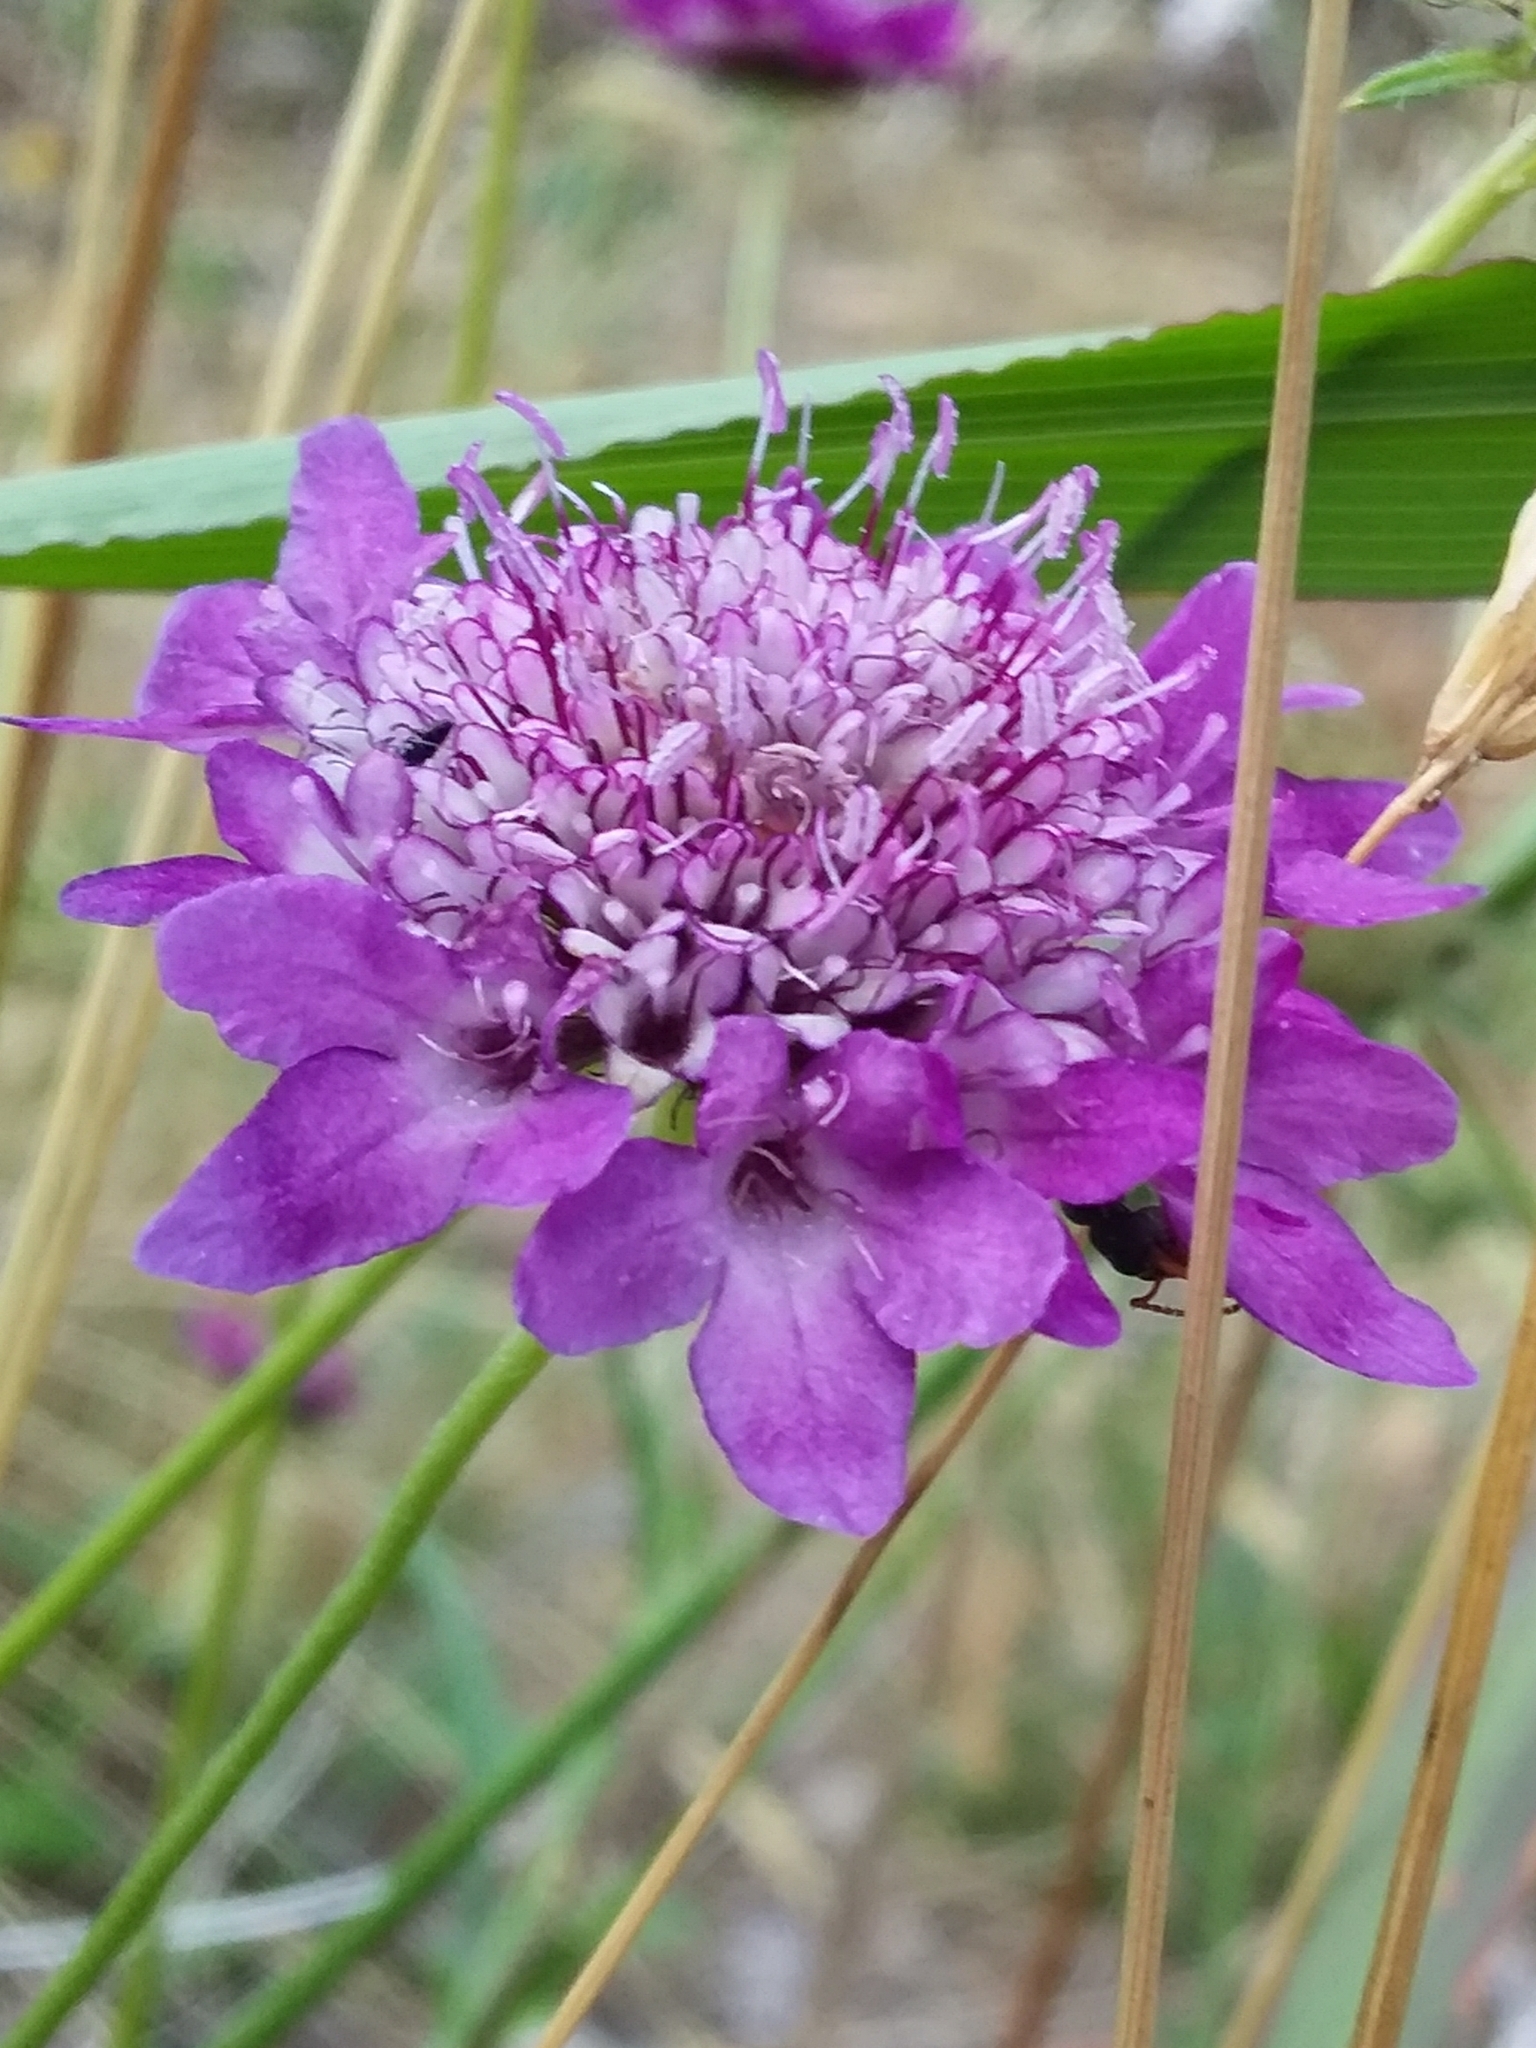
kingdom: Plantae
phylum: Tracheophyta
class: Magnoliopsida
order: Dipsacales
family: Caprifoliaceae
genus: Sixalix
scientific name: Sixalix atropurpurea
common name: Sweet scabious
